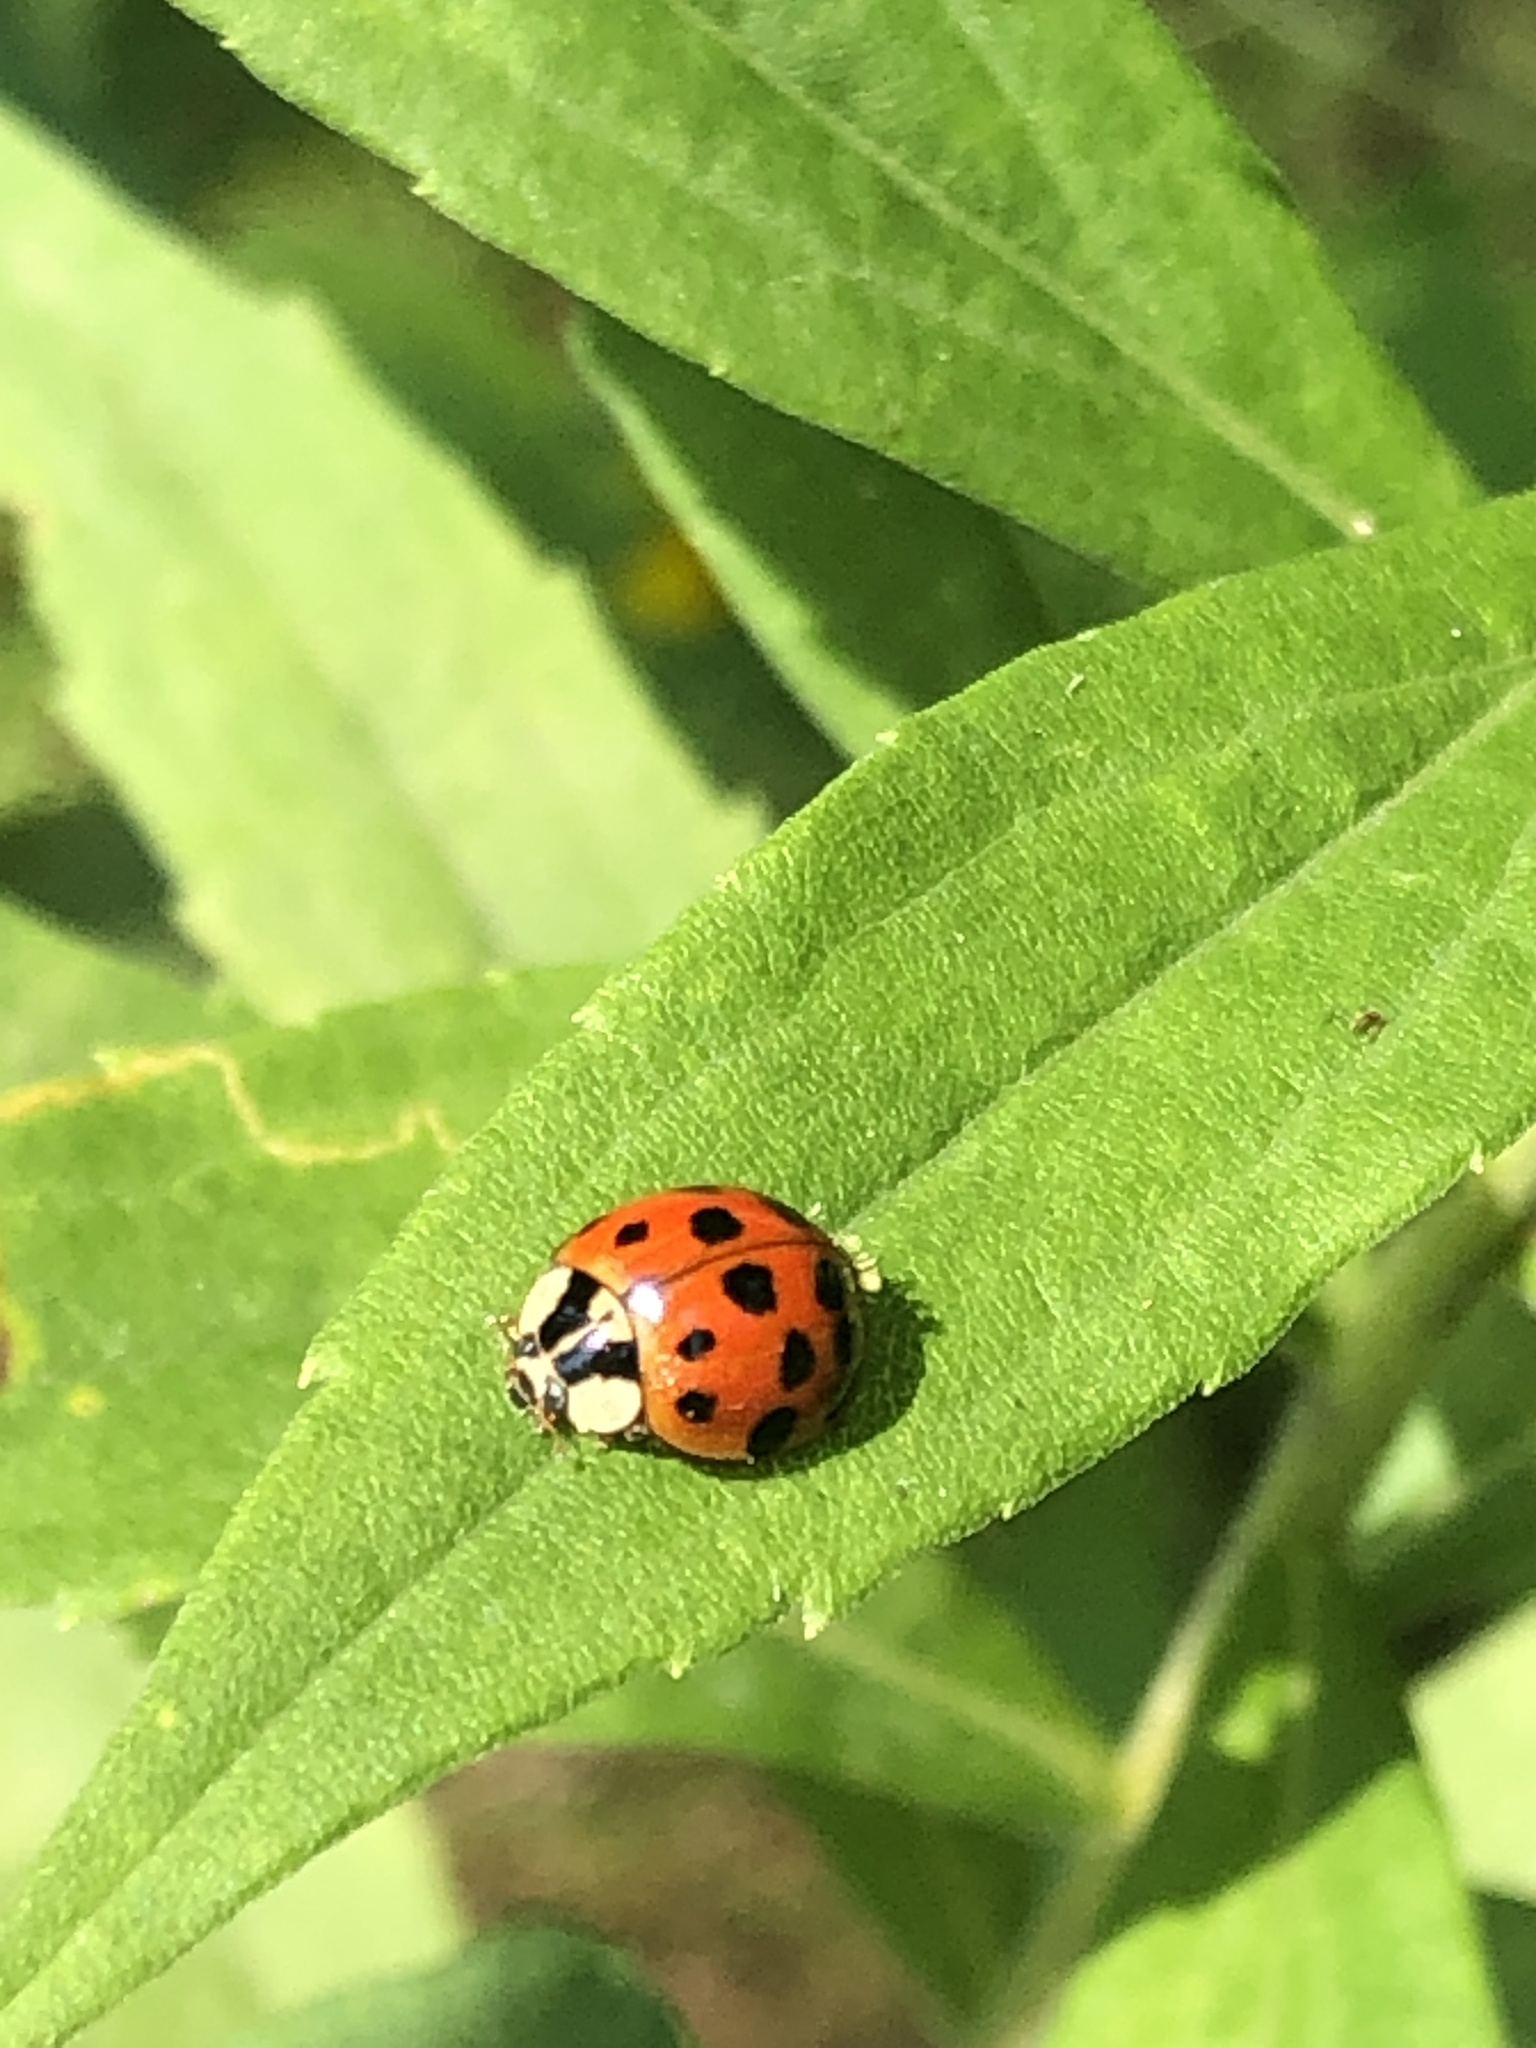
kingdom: Animalia
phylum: Arthropoda
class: Insecta
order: Coleoptera
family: Coccinellidae
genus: Harmonia
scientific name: Harmonia axyridis
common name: Harlequin ladybird
